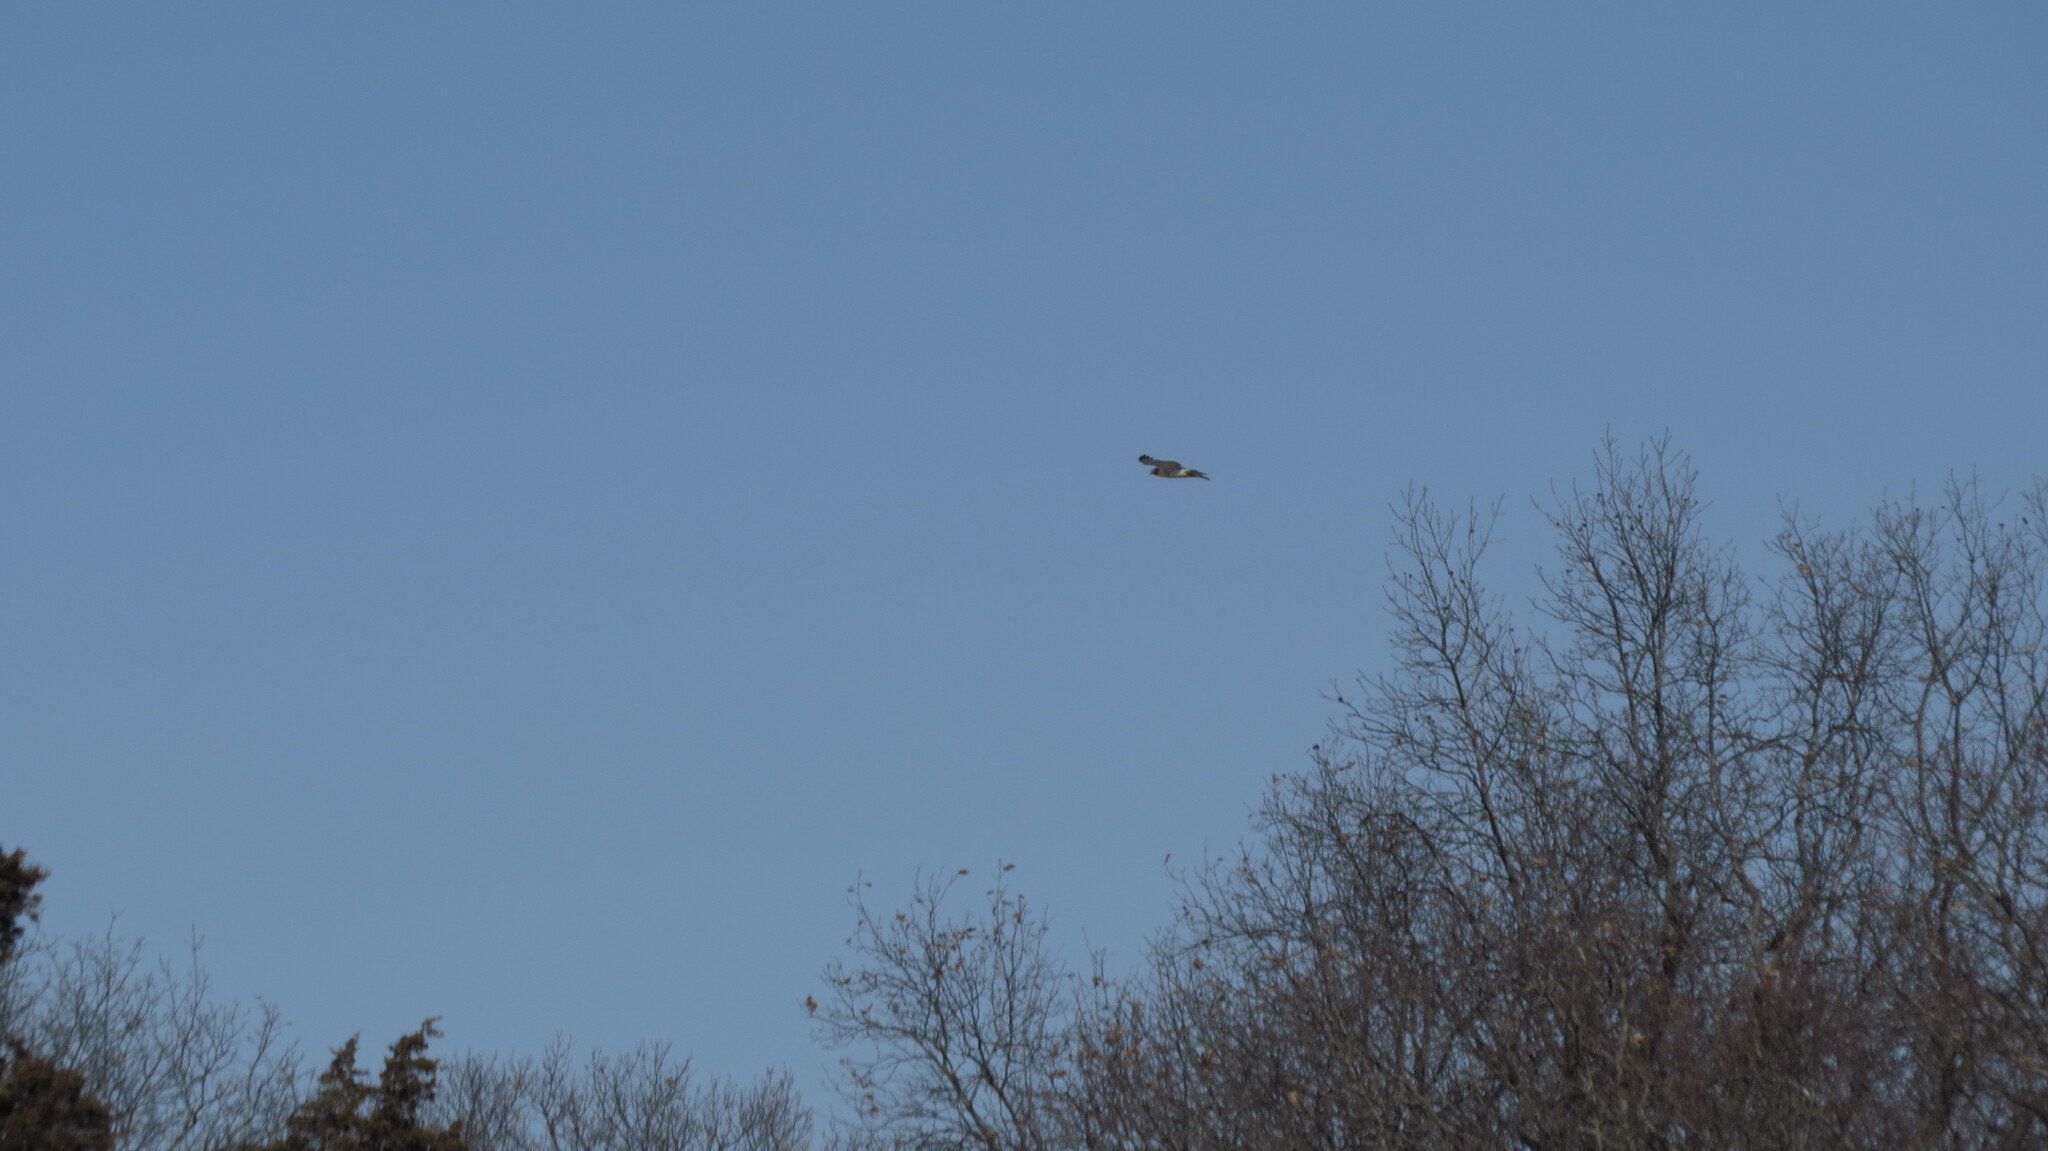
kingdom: Animalia
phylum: Chordata
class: Aves
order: Accipitriformes
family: Accipitridae
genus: Buteo
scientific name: Buteo jamaicensis
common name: Red-tailed hawk
